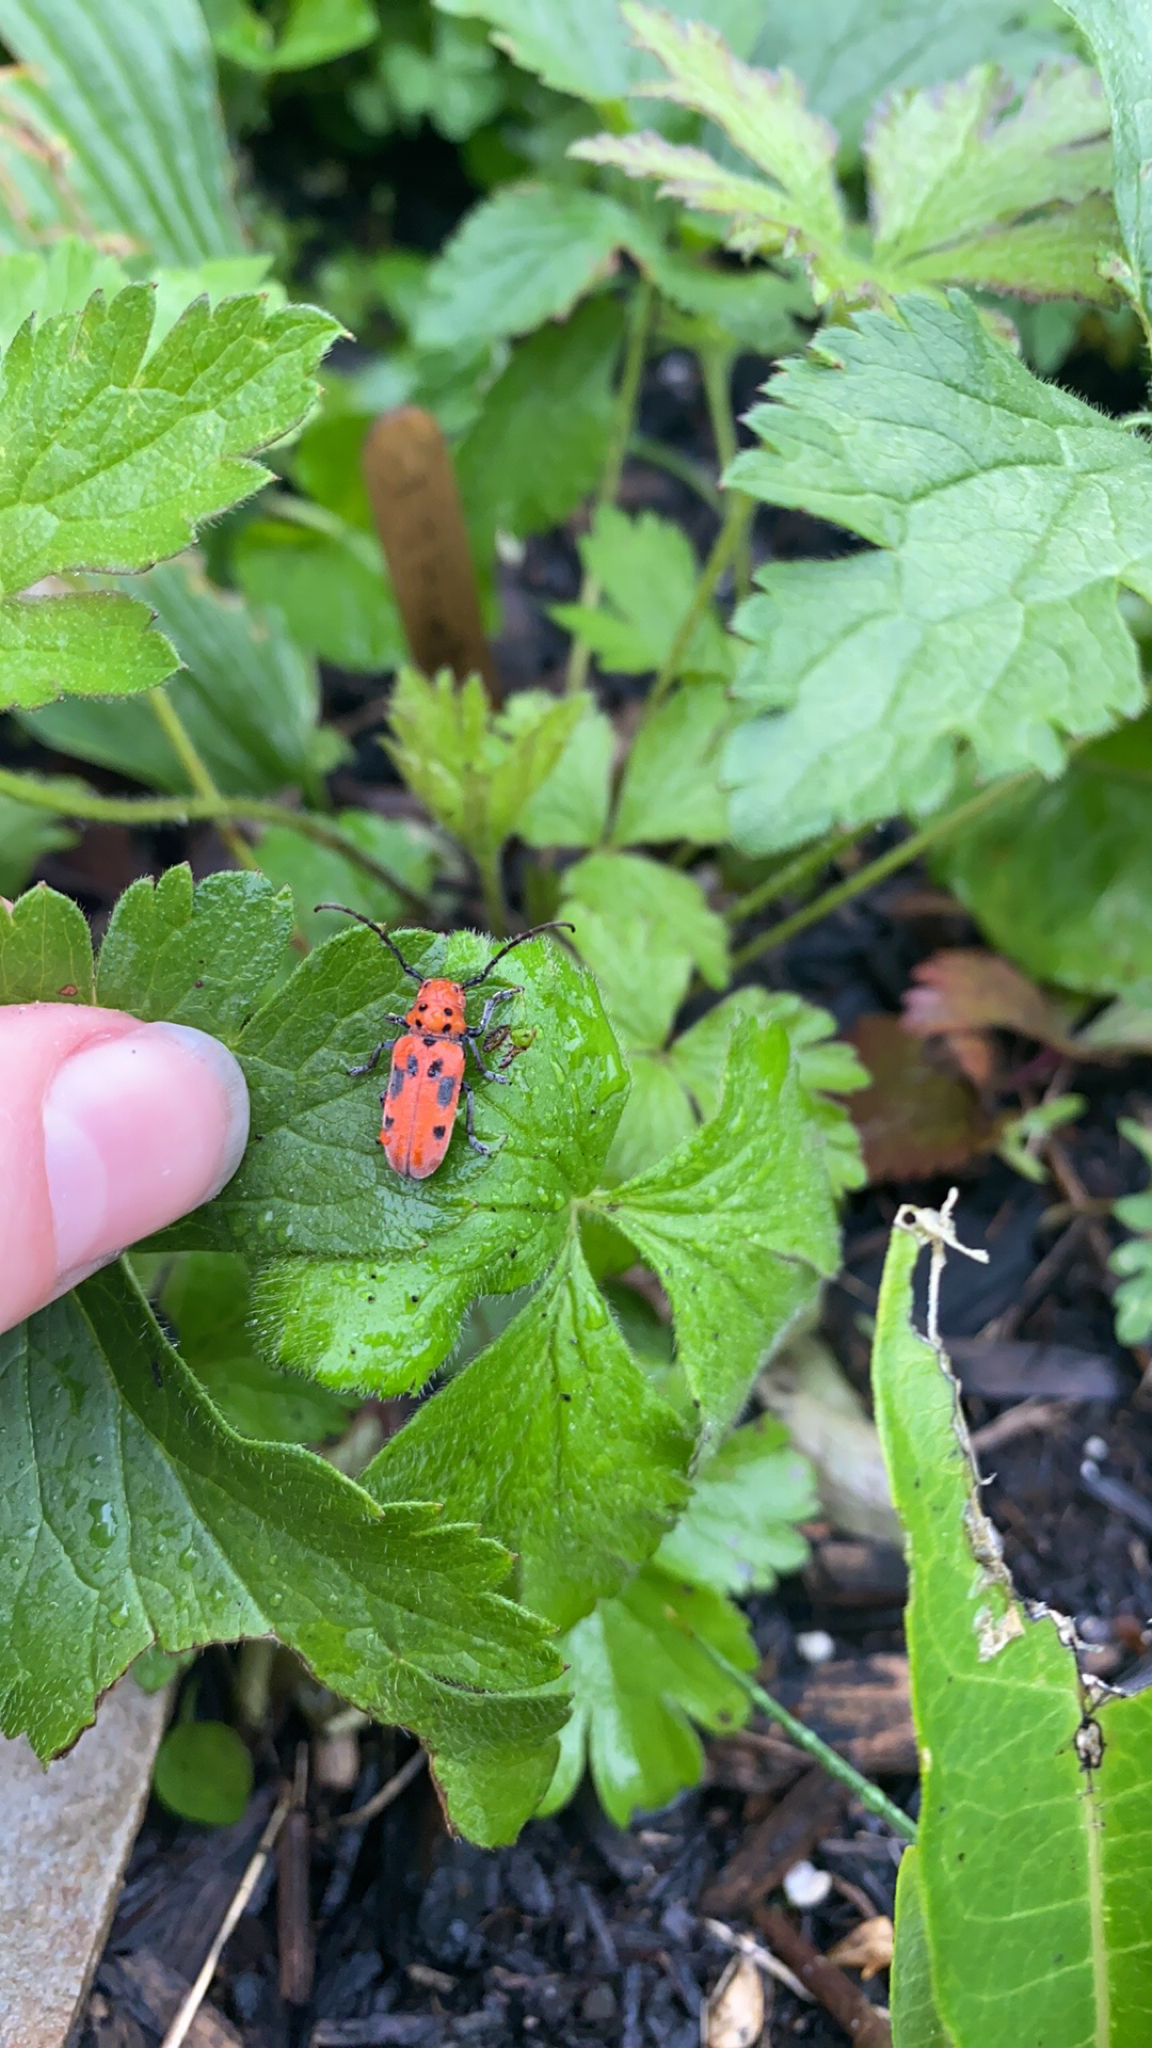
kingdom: Animalia
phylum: Arthropoda
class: Insecta
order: Coleoptera
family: Cerambycidae
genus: Tetraopes
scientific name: Tetraopes tetrophthalmus
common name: Red milkweed beetle
